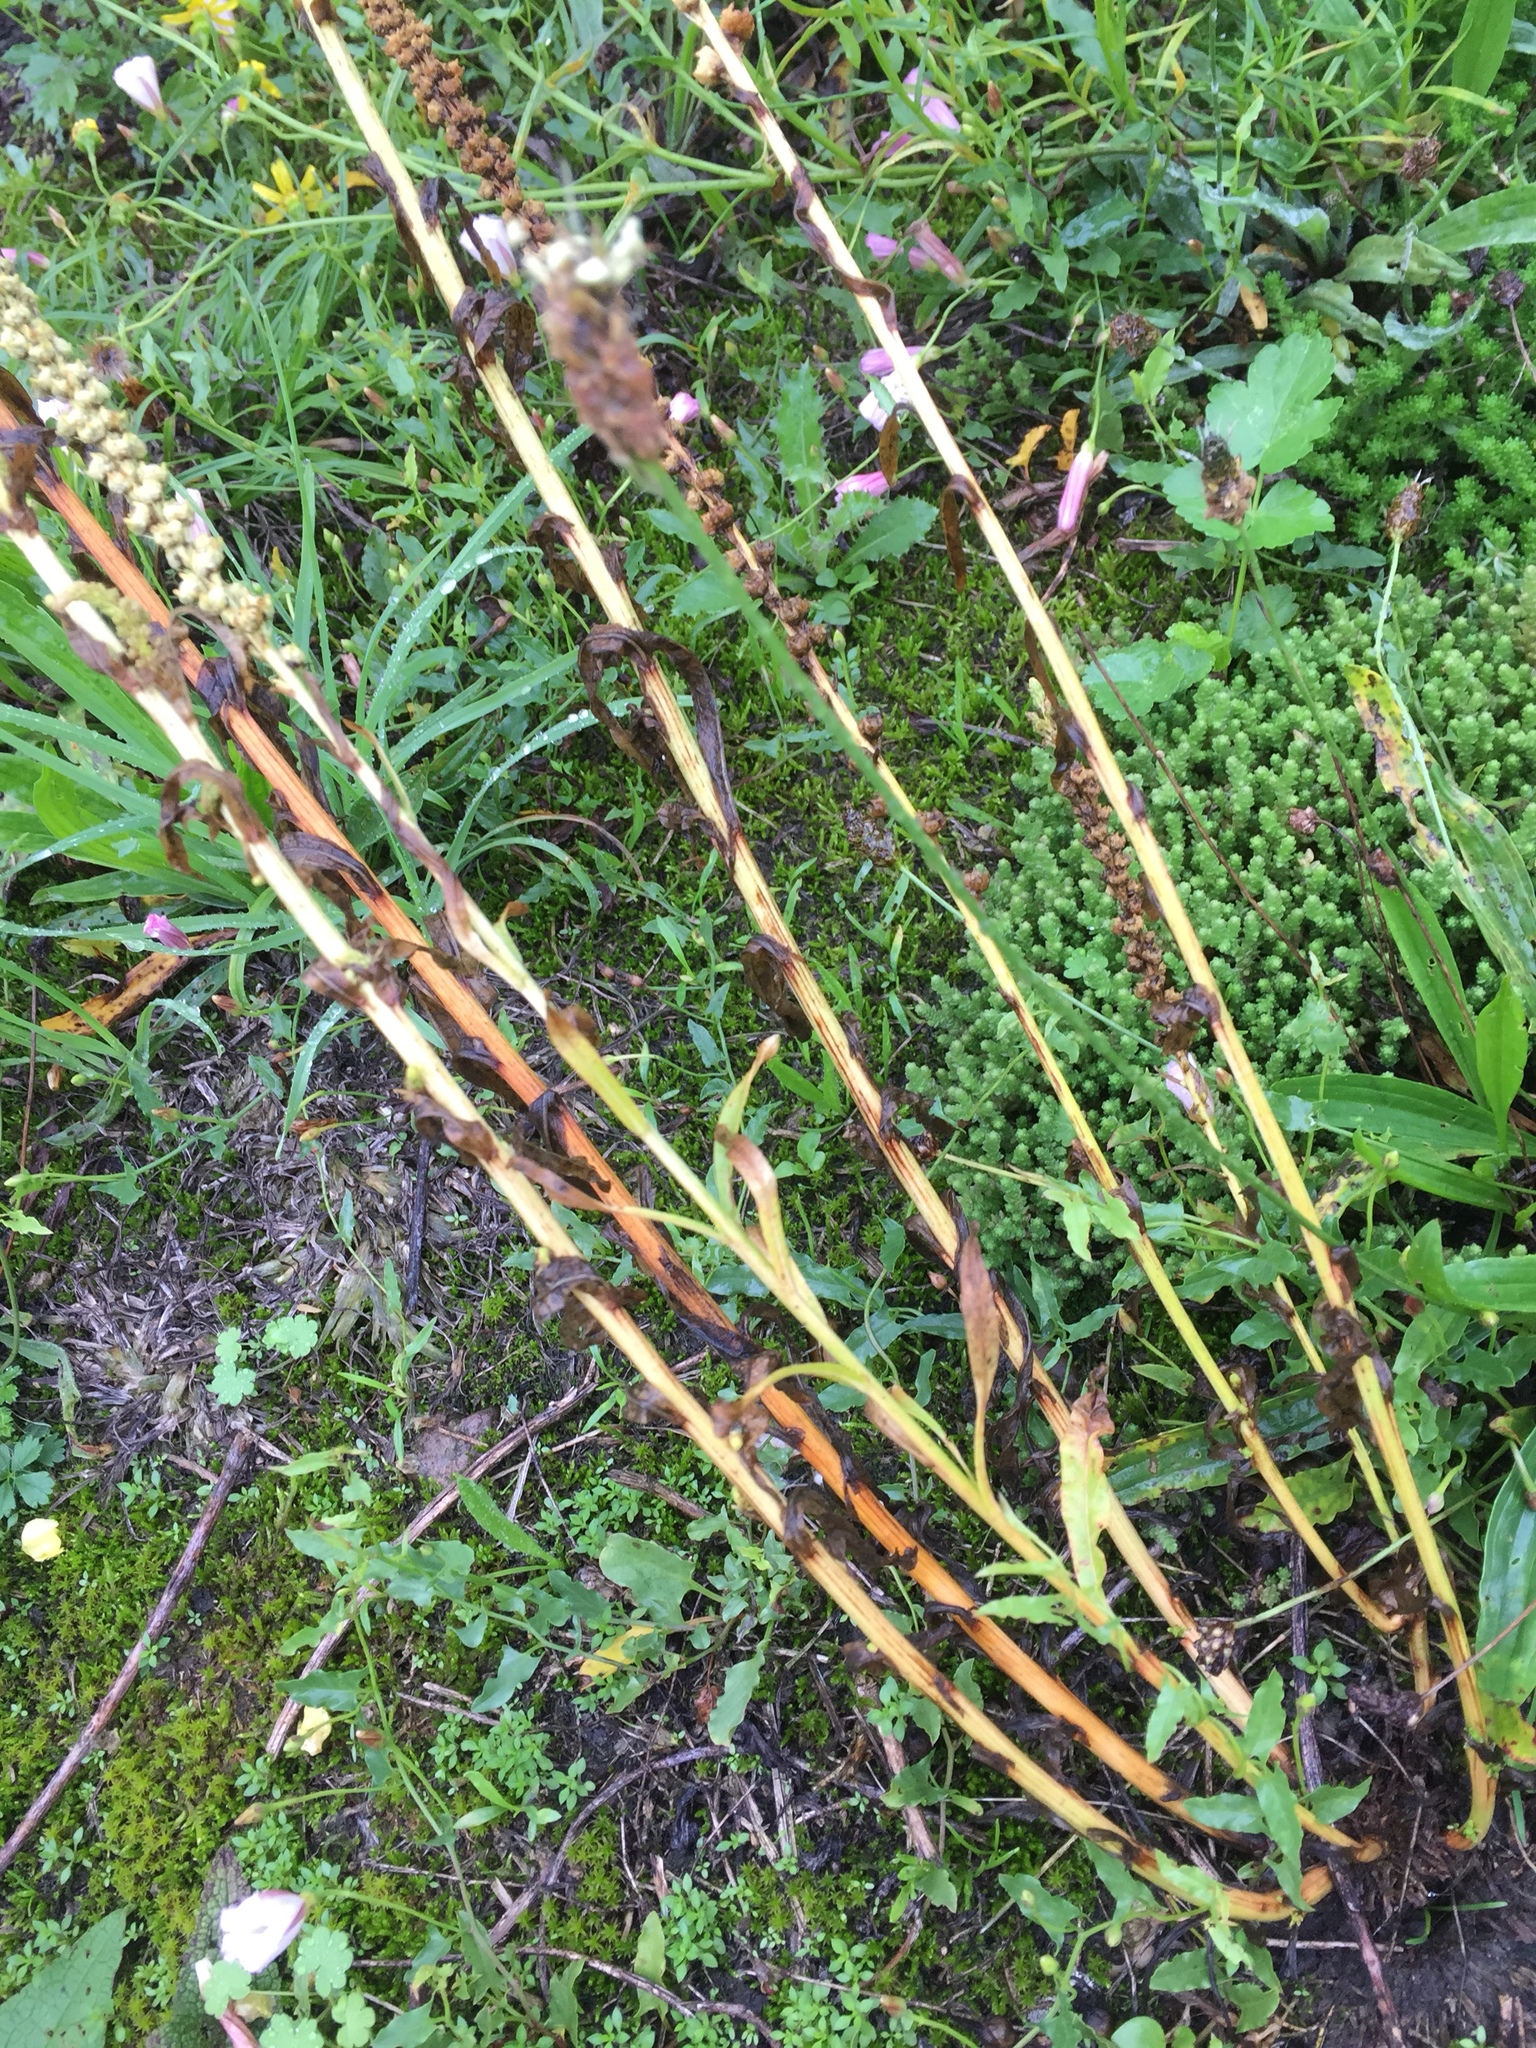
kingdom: Plantae
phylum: Tracheophyta
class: Magnoliopsida
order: Brassicales
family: Resedaceae
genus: Reseda
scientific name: Reseda luteola
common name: Weld
